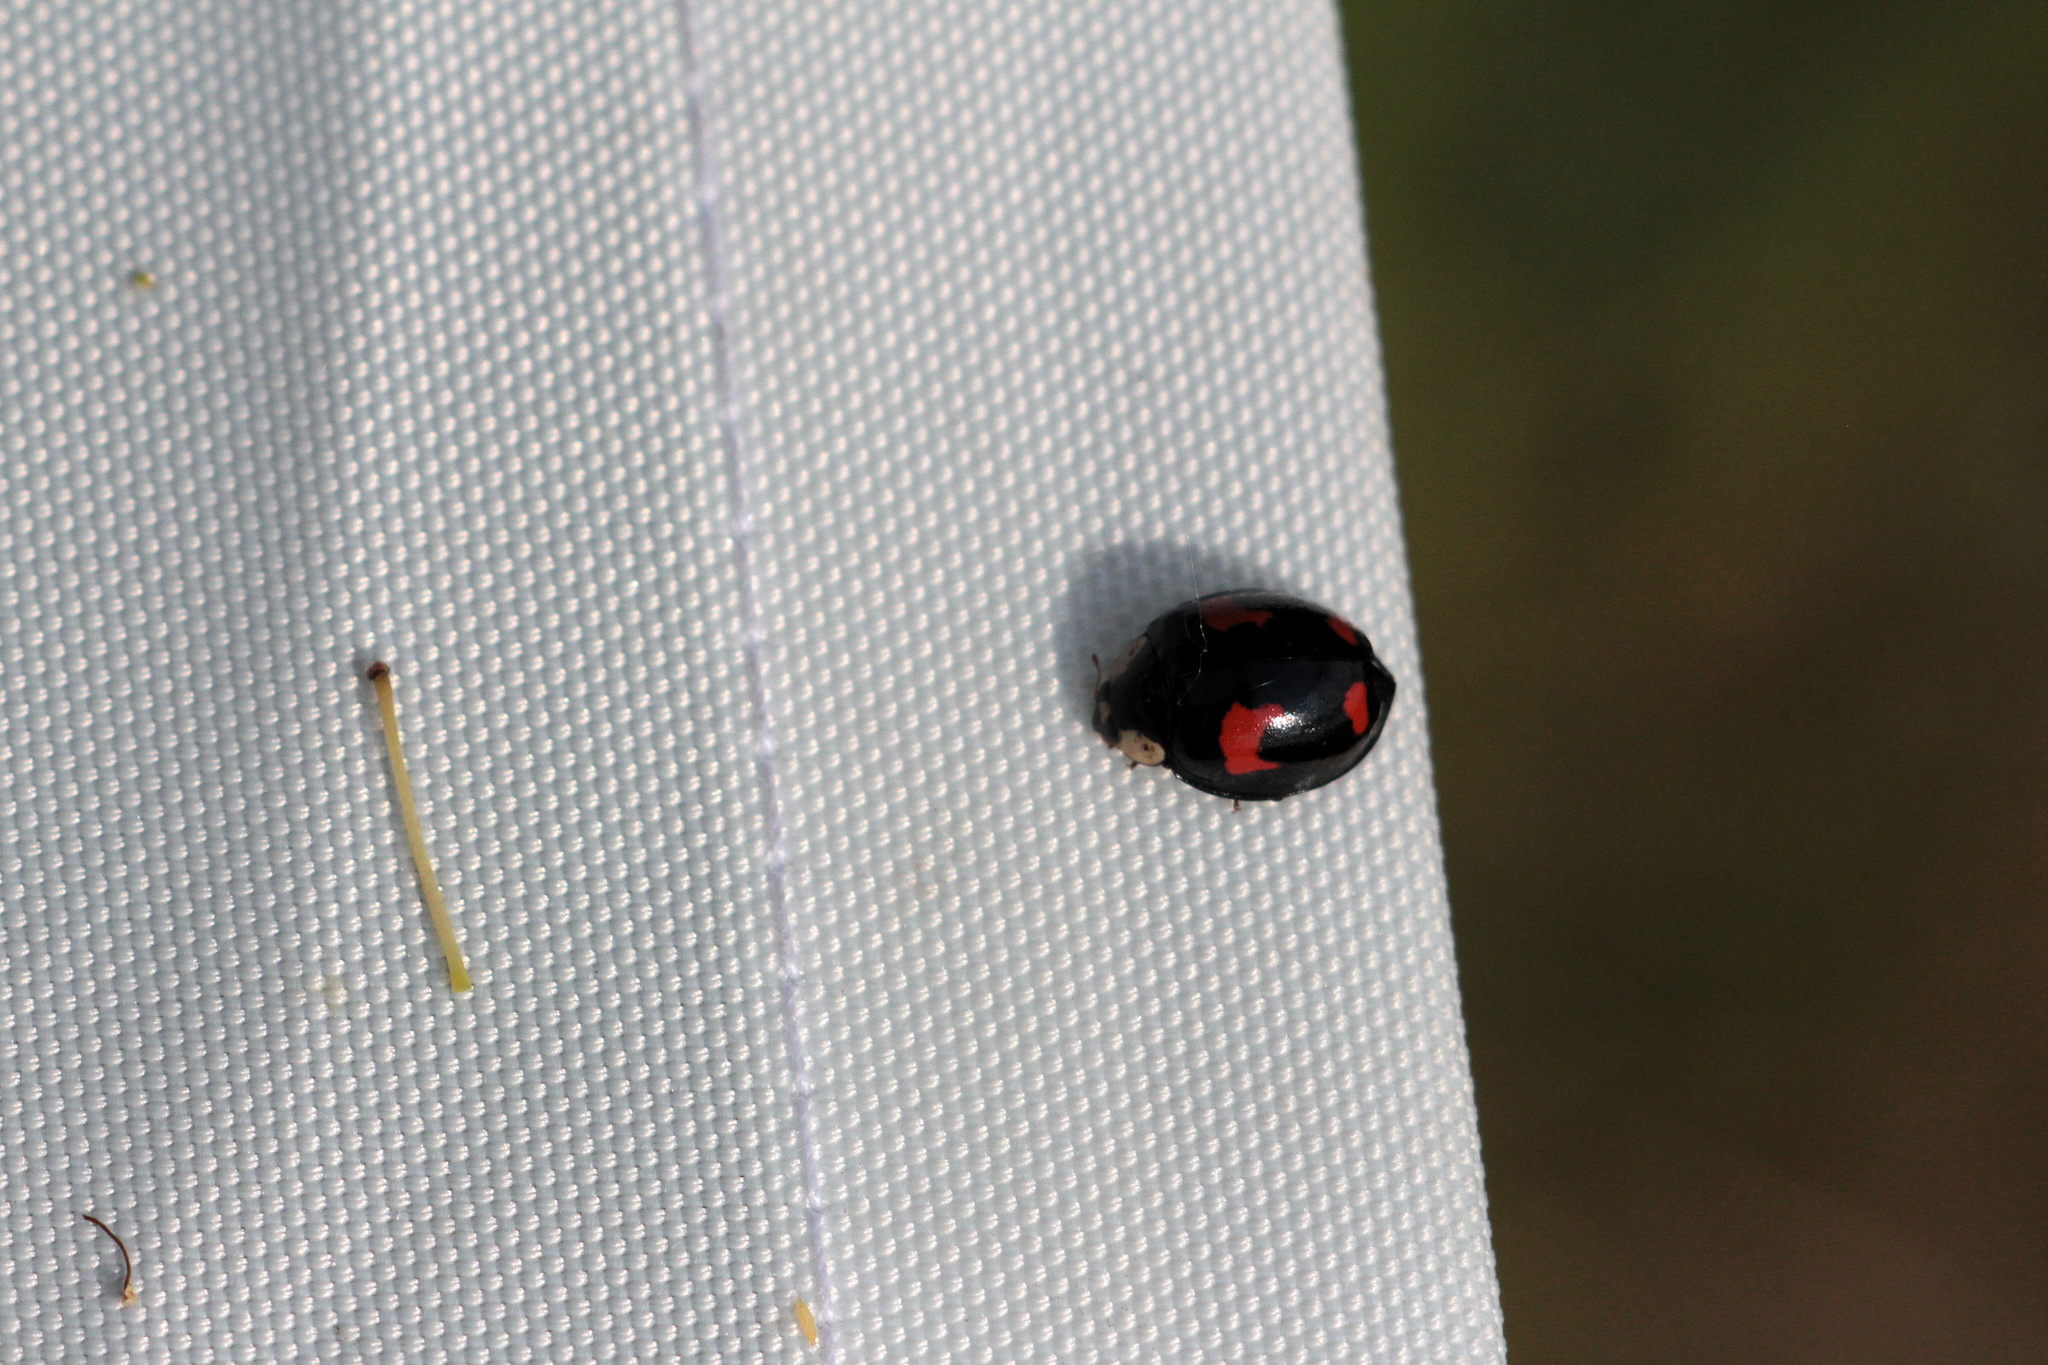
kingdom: Animalia
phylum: Arthropoda
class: Insecta
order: Coleoptera
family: Coccinellidae
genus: Harmonia
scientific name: Harmonia axyridis
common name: Harlequin ladybird
